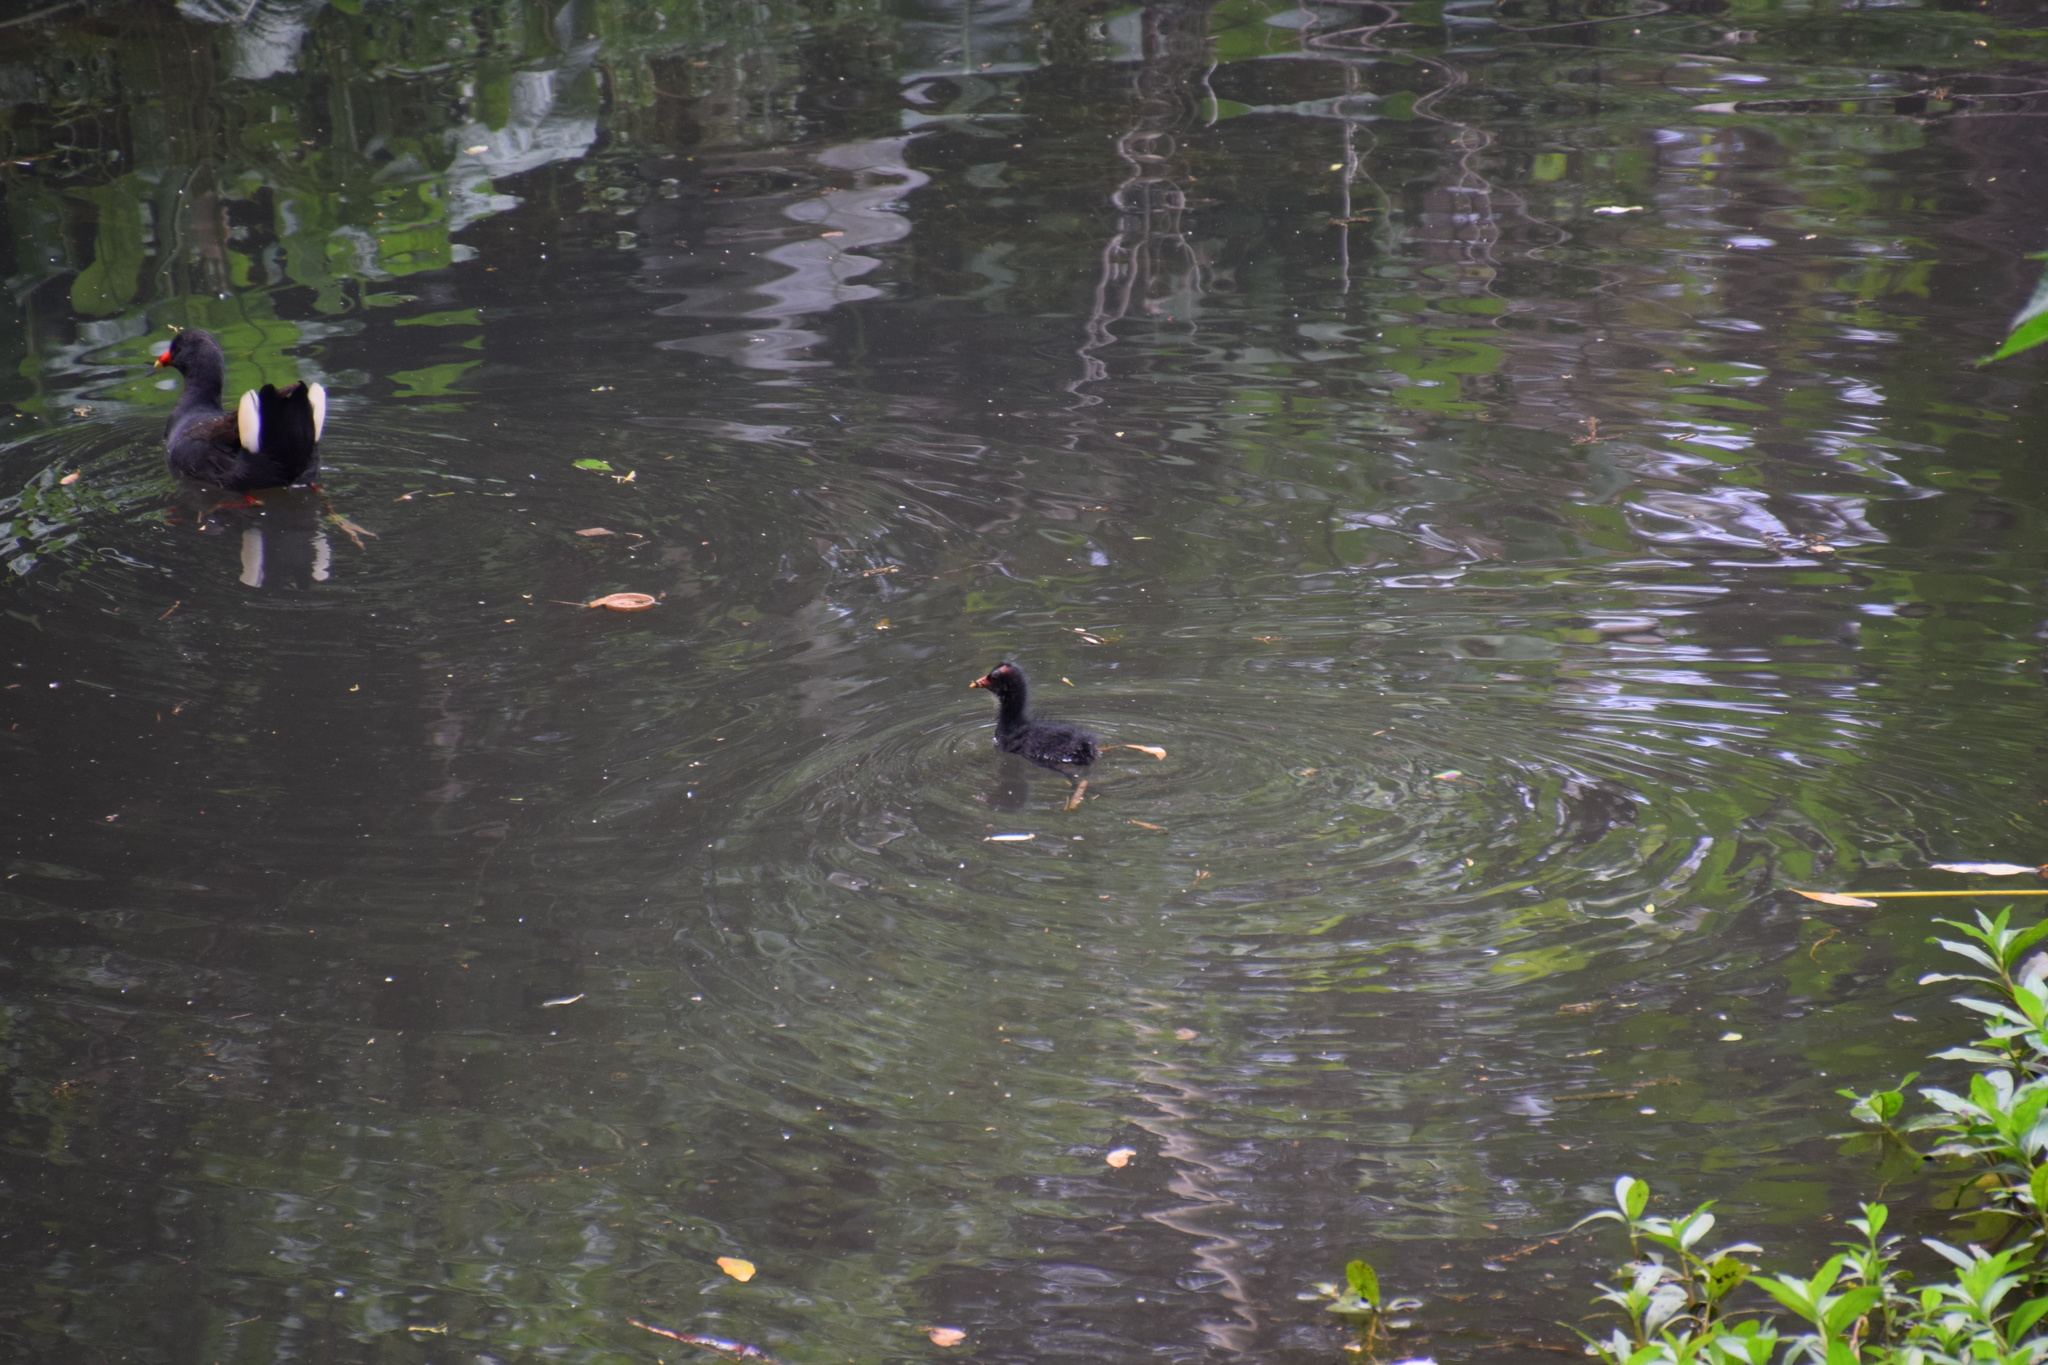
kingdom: Animalia
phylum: Chordata
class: Aves
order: Gruiformes
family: Rallidae
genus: Gallinula
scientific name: Gallinula tenebrosa
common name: Dusky moorhen
